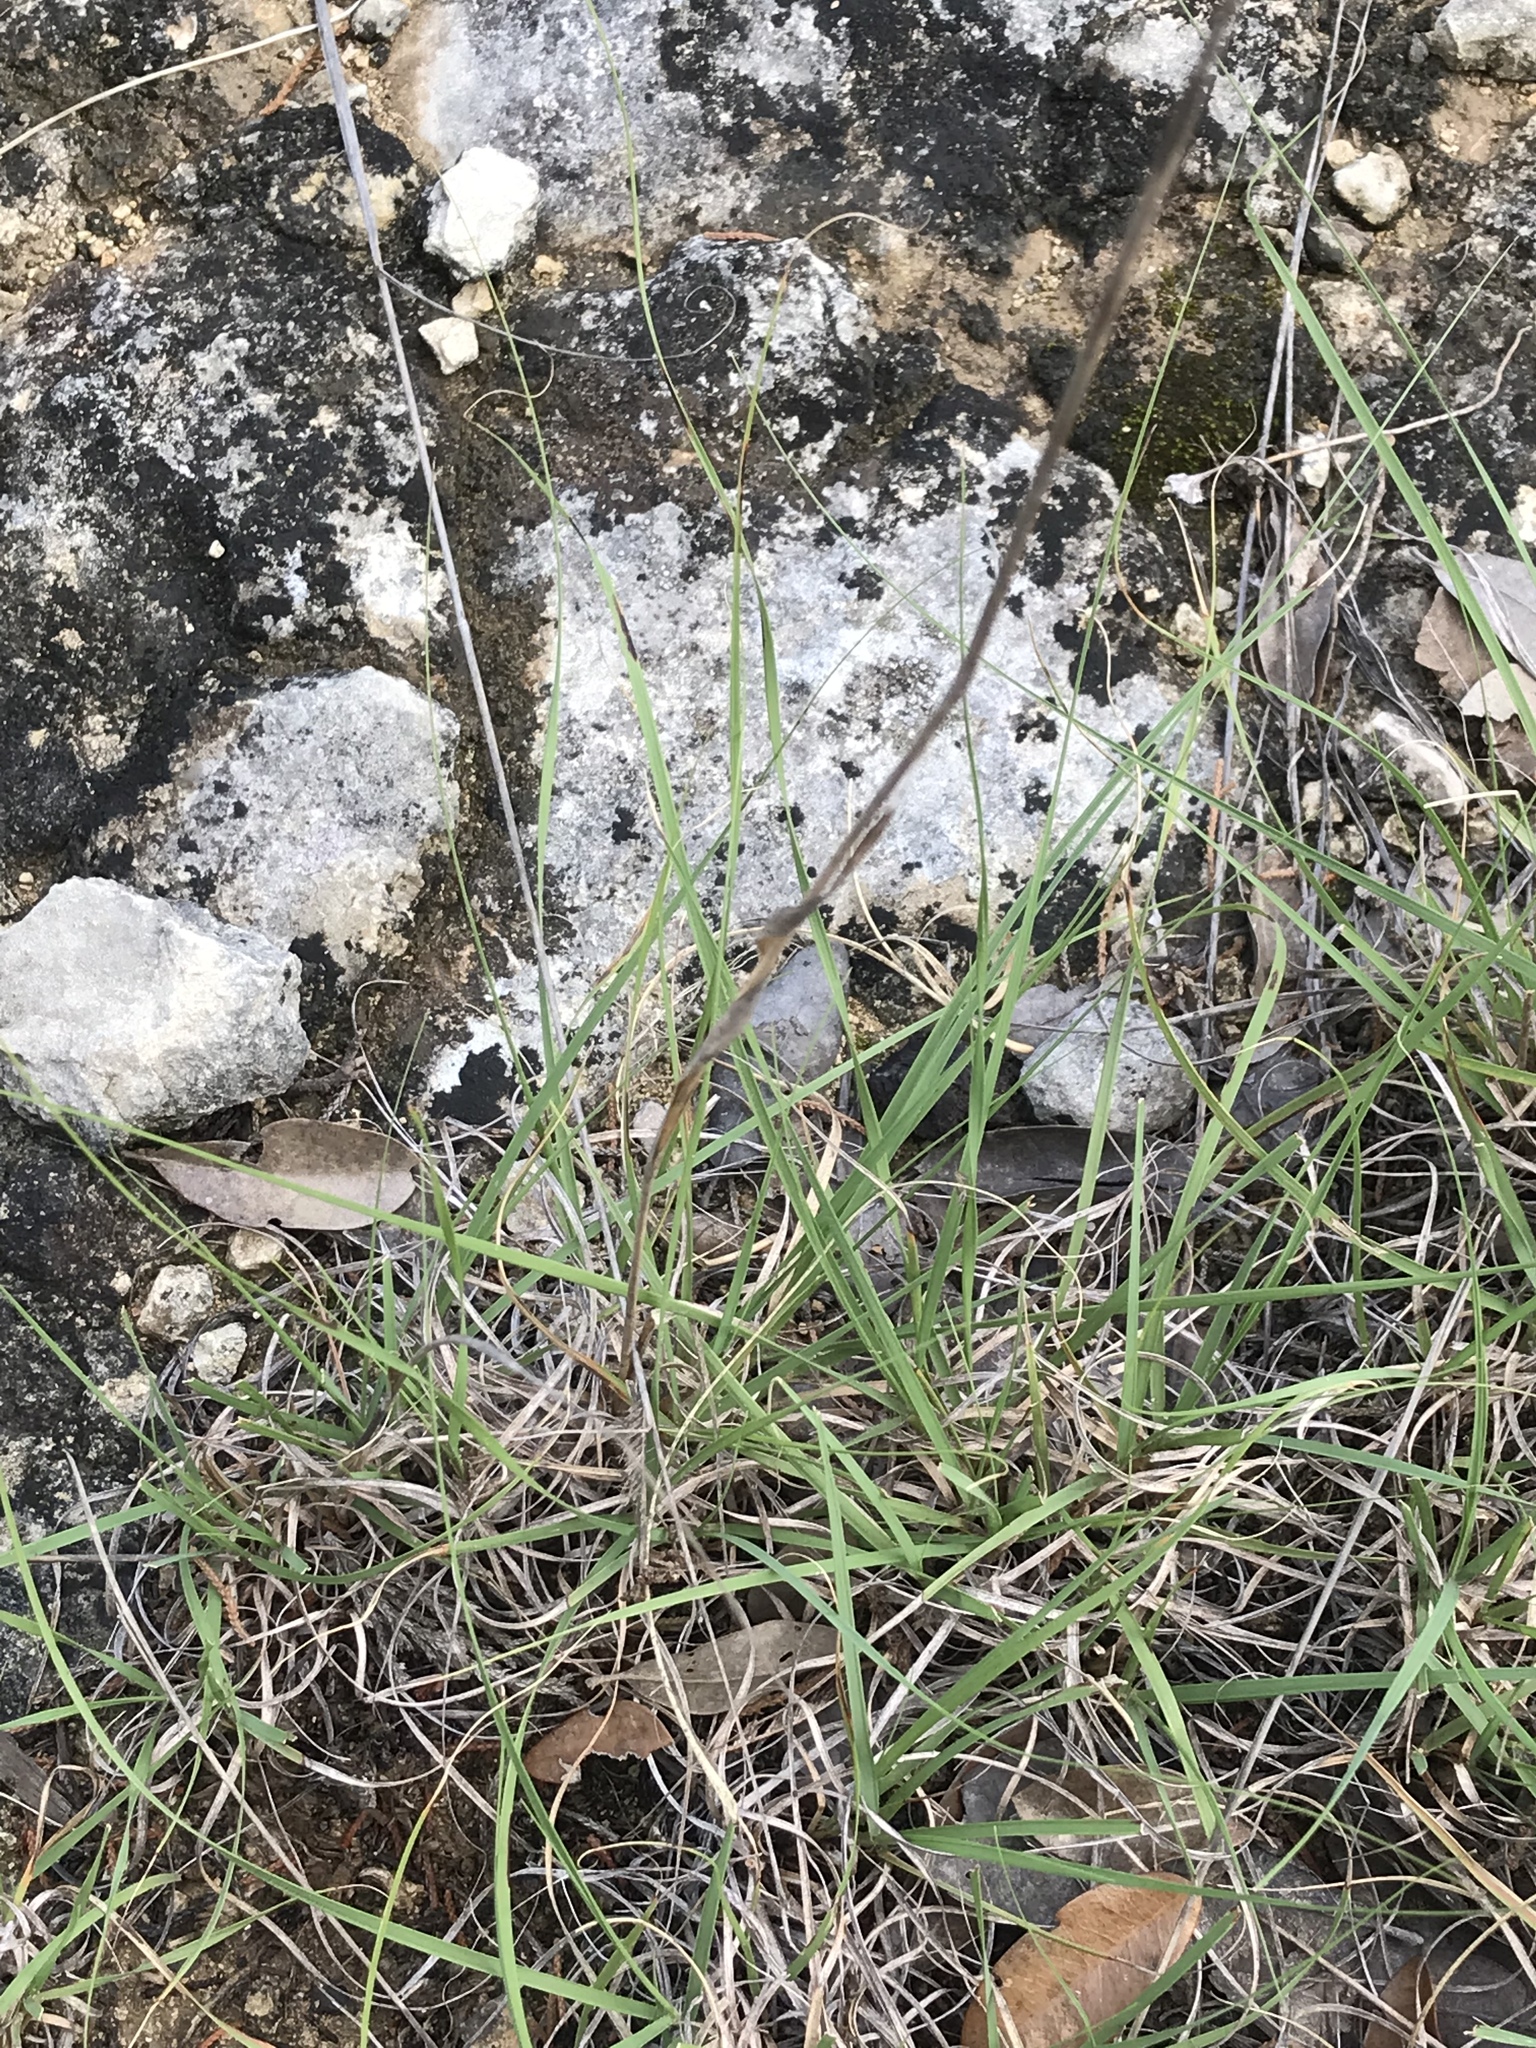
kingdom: Plantae
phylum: Tracheophyta
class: Liliopsida
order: Poales
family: Poaceae
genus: Bouteloua
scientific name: Bouteloua hirsuta
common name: Hairy grama
